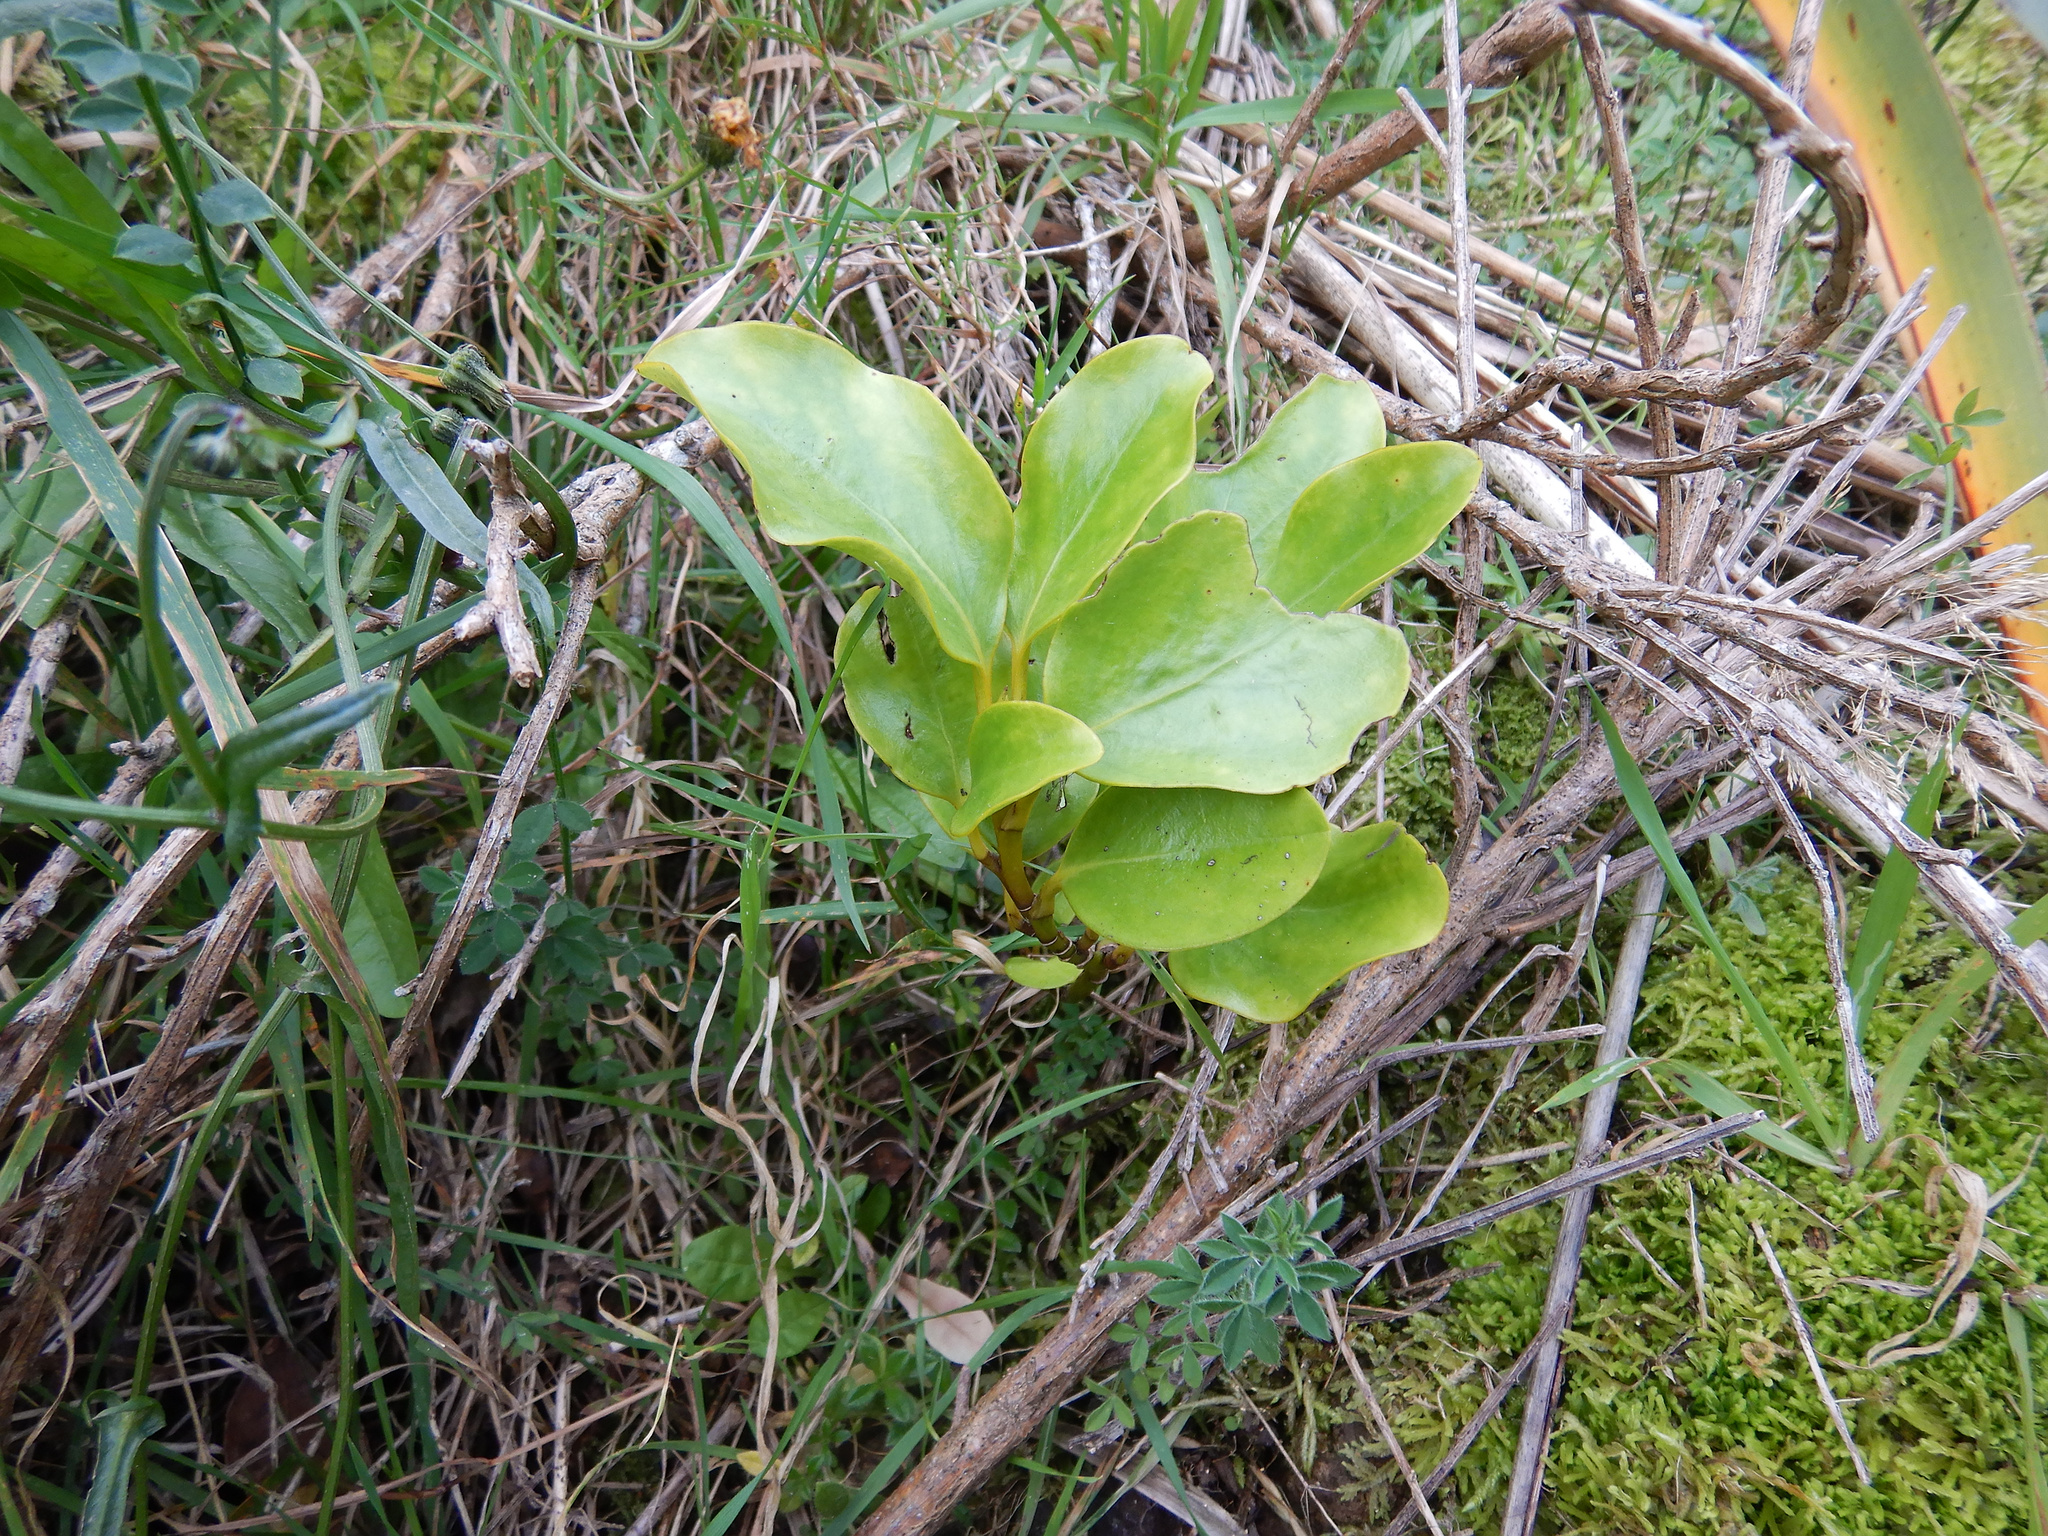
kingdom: Plantae
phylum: Tracheophyta
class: Magnoliopsida
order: Apiales
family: Griseliniaceae
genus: Griselinia
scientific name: Griselinia littoralis
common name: New zealand broadleaf
